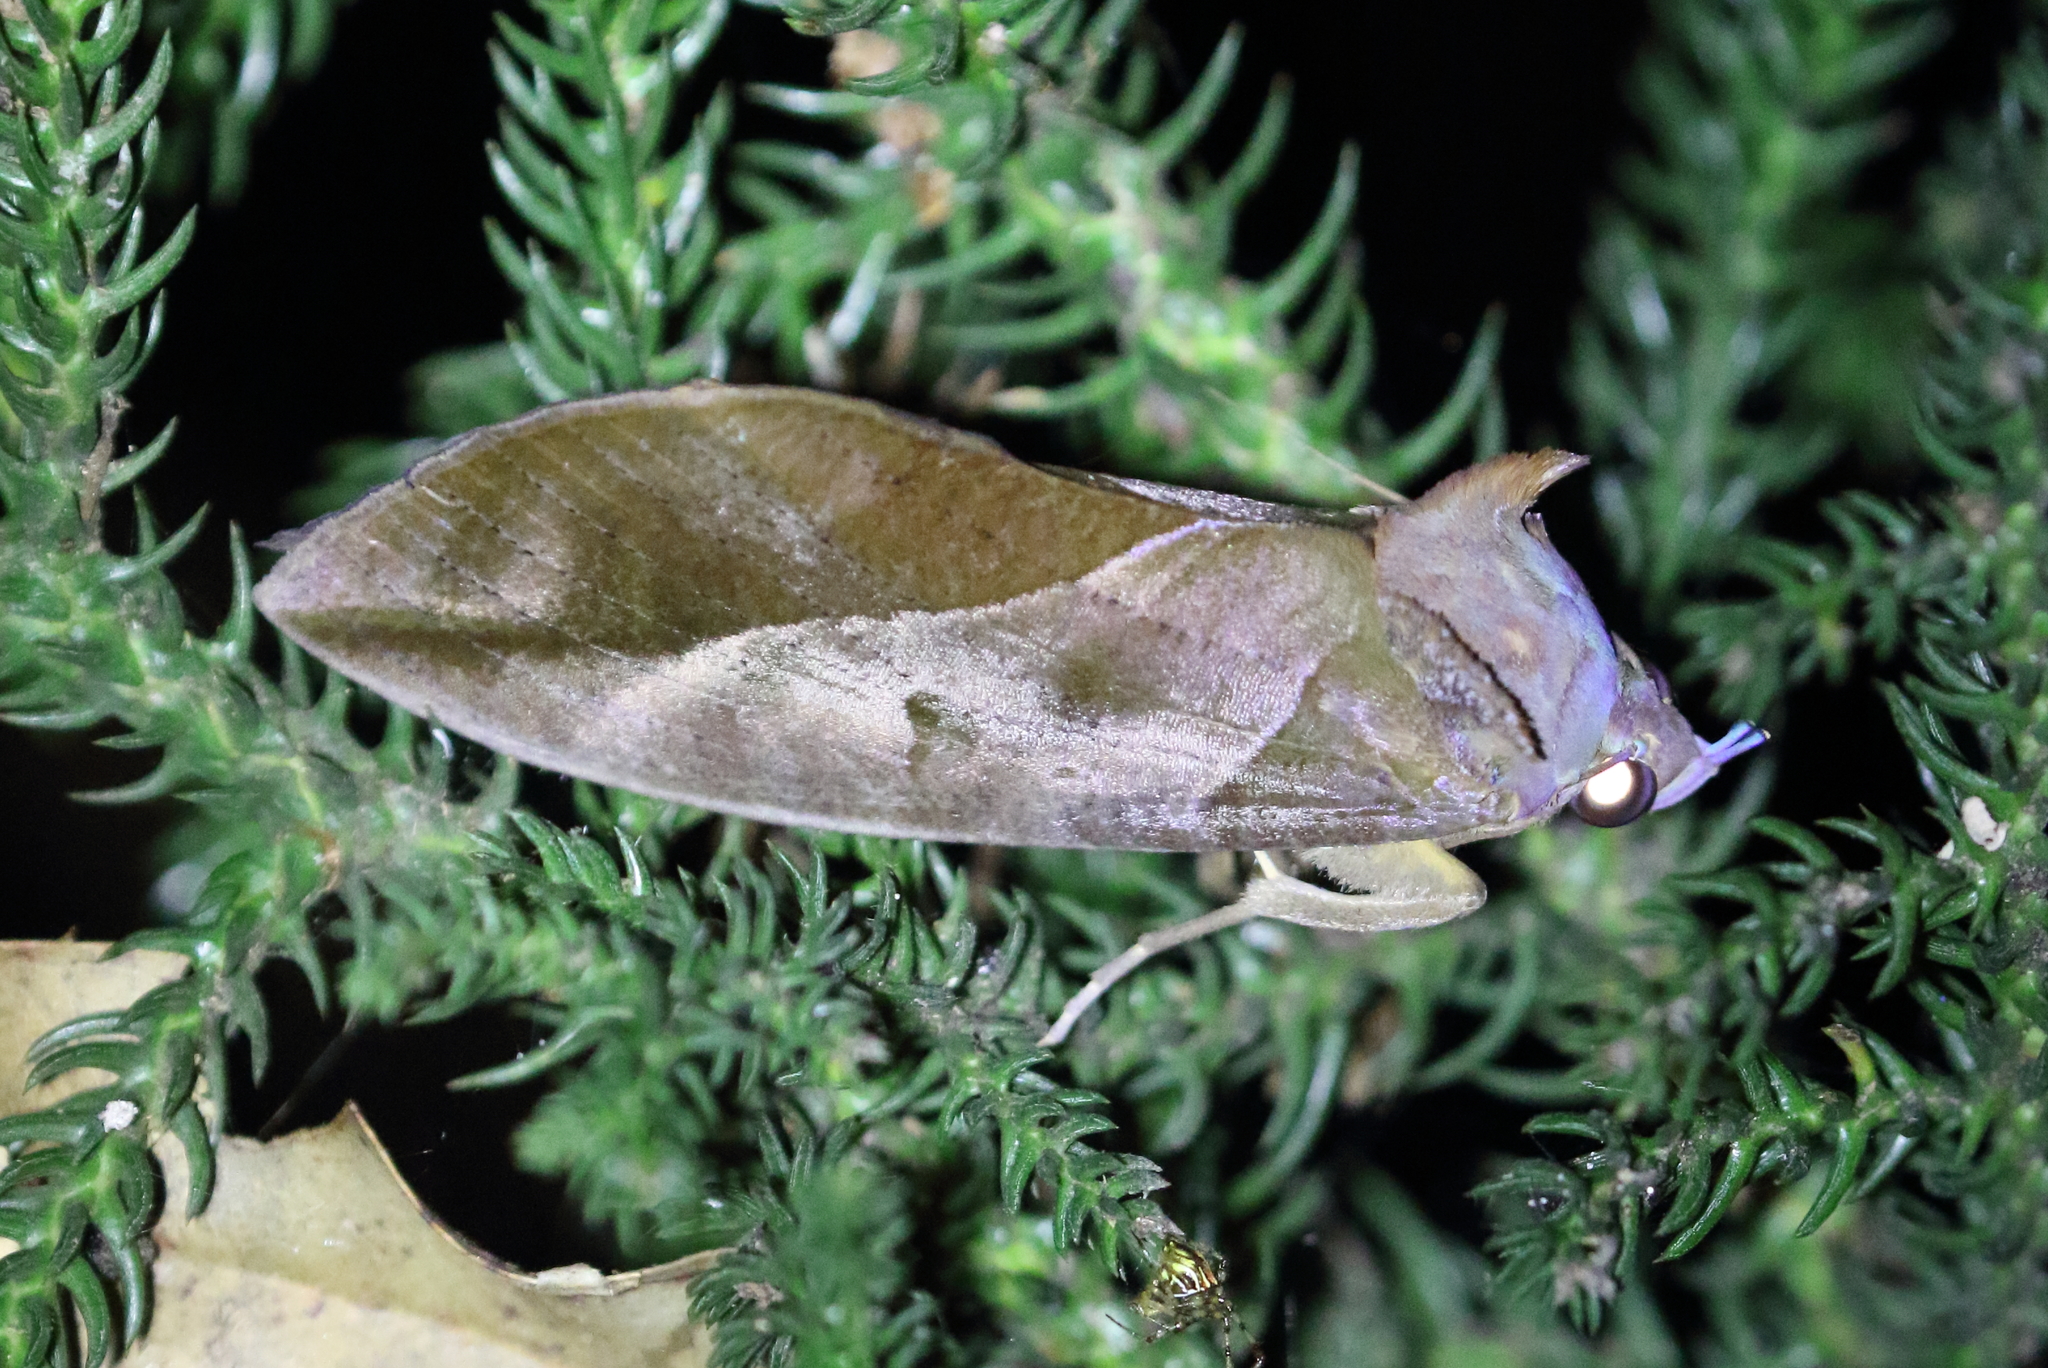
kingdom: Animalia
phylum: Arthropoda
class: Insecta
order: Lepidoptera
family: Erebidae
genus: Eudocima
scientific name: Eudocima phalonia
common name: Wasp
